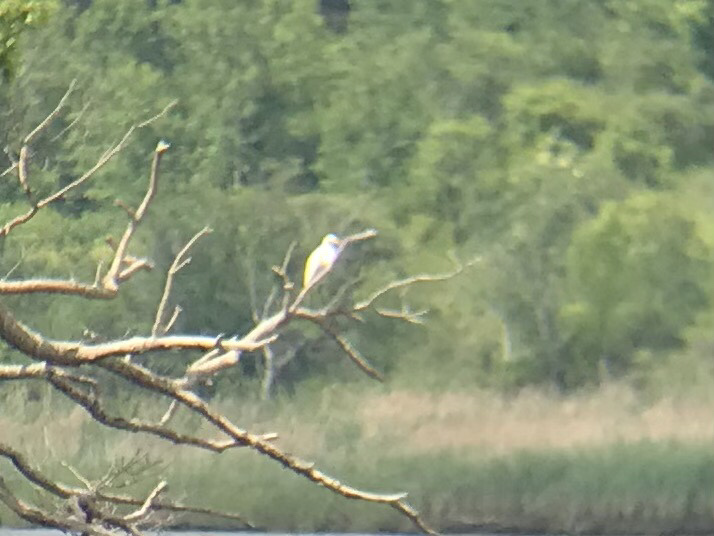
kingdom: Animalia
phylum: Chordata
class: Aves
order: Pelecaniformes
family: Ardeidae
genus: Ardea
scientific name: Ardea alba
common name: Great egret
